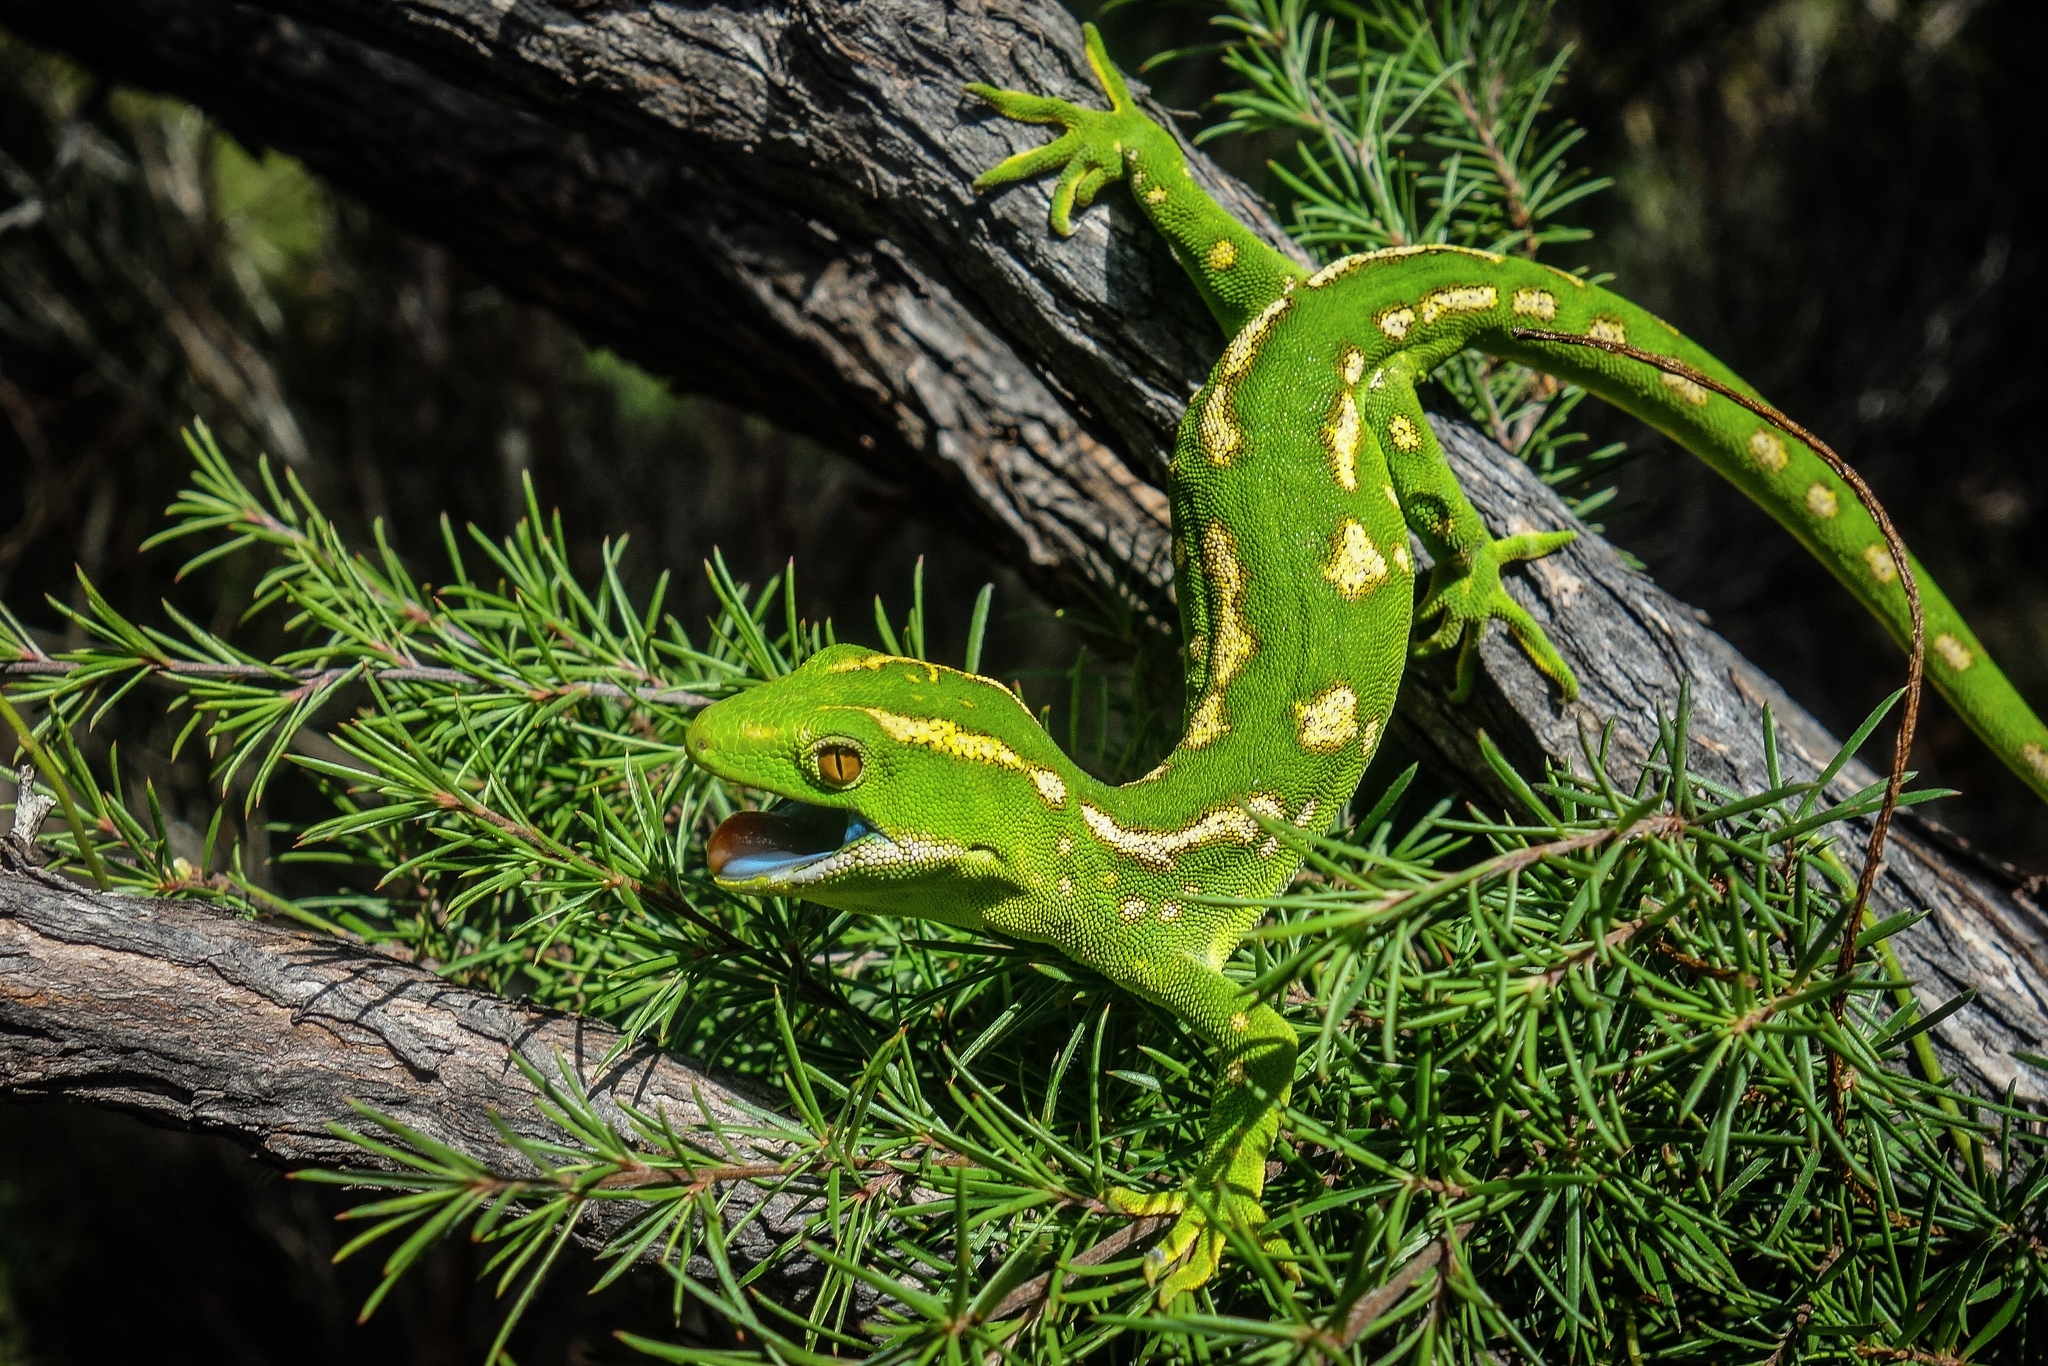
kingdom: Animalia
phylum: Chordata
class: Squamata
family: Diplodactylidae
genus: Naultinus
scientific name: Naultinus grayii
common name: Gray's tree gecko
